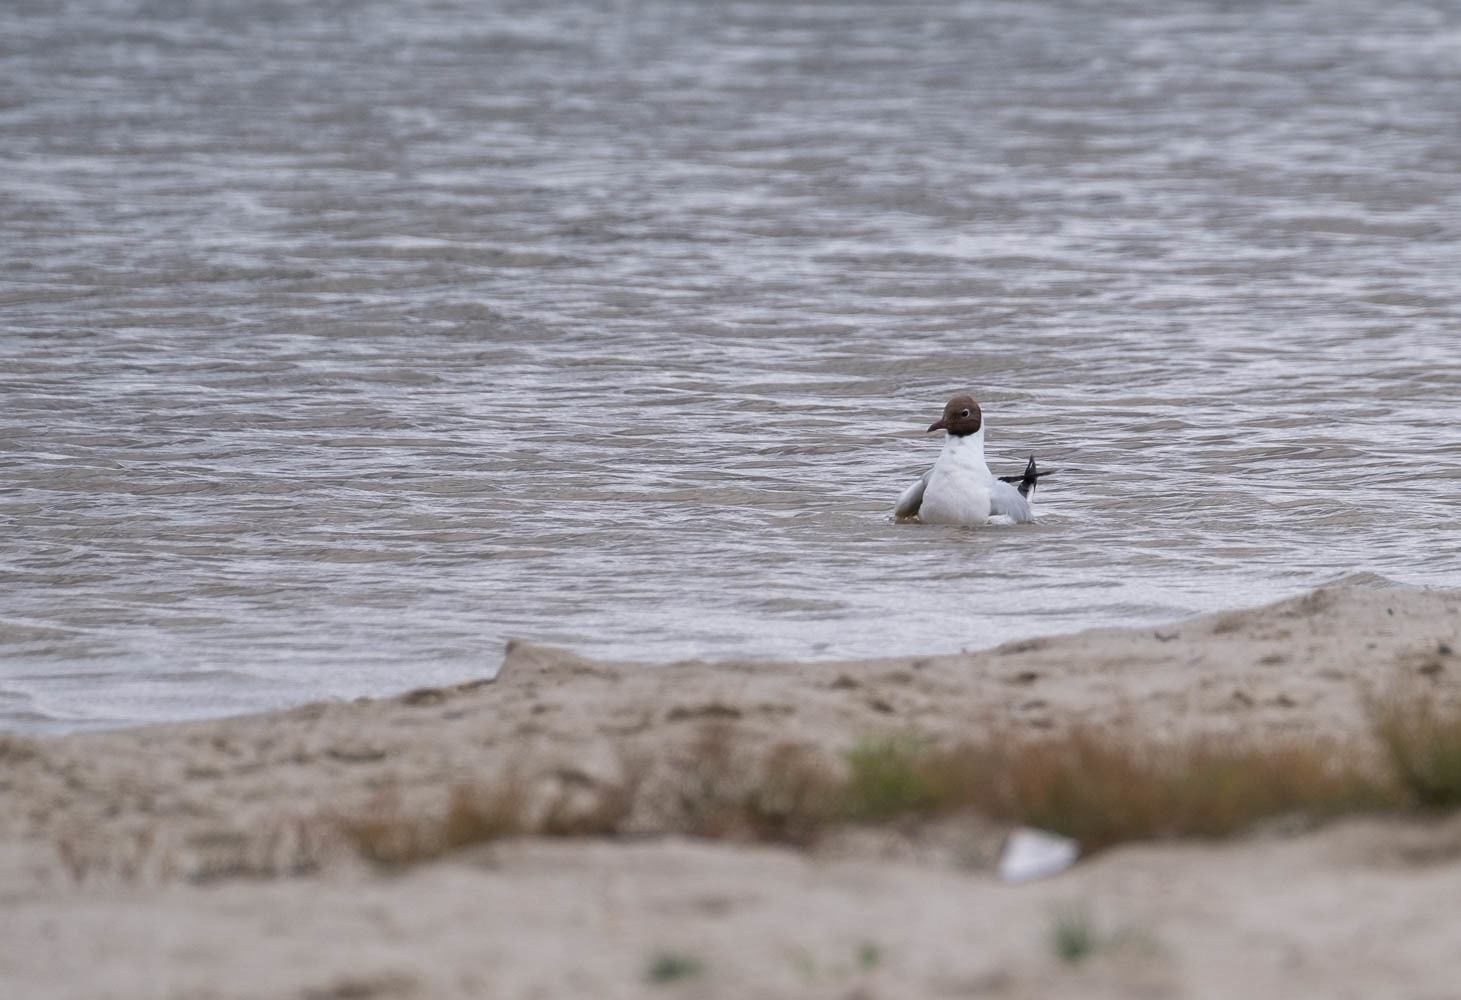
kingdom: Animalia
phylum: Chordata
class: Aves
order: Charadriiformes
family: Laridae
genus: Chroicocephalus
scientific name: Chroicocephalus ridibundus
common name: Black-headed gull
